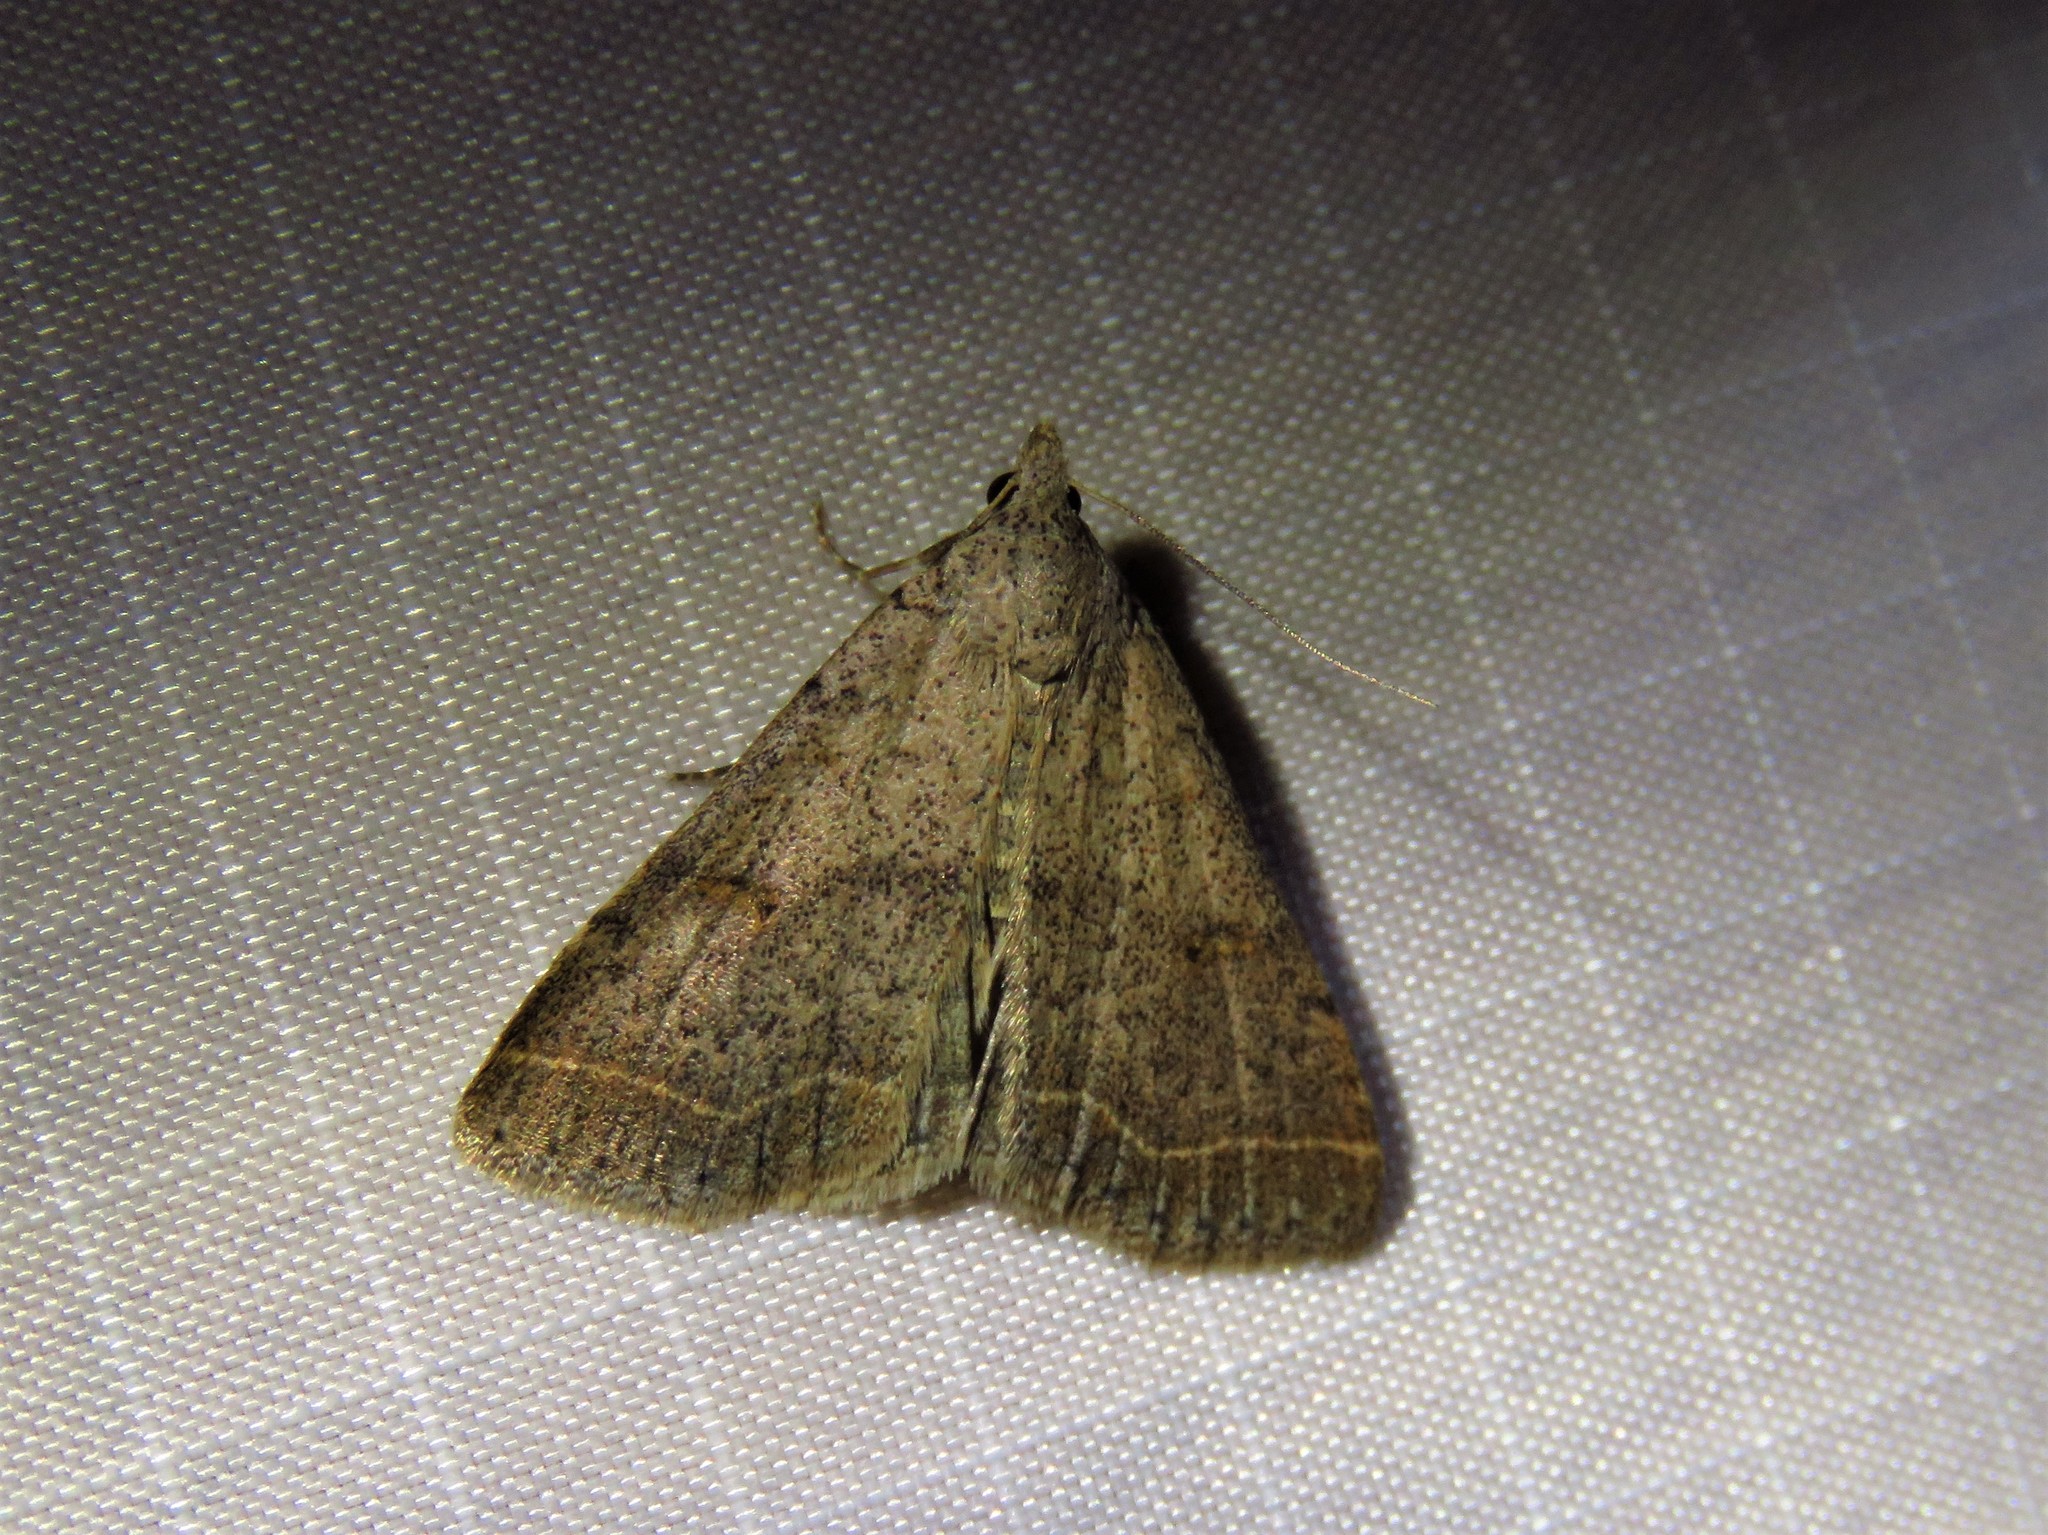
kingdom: Animalia
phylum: Arthropoda
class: Insecta
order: Lepidoptera
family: Erebidae
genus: Bleptina
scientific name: Bleptina caradrinalis
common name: Bent-winged owlet
